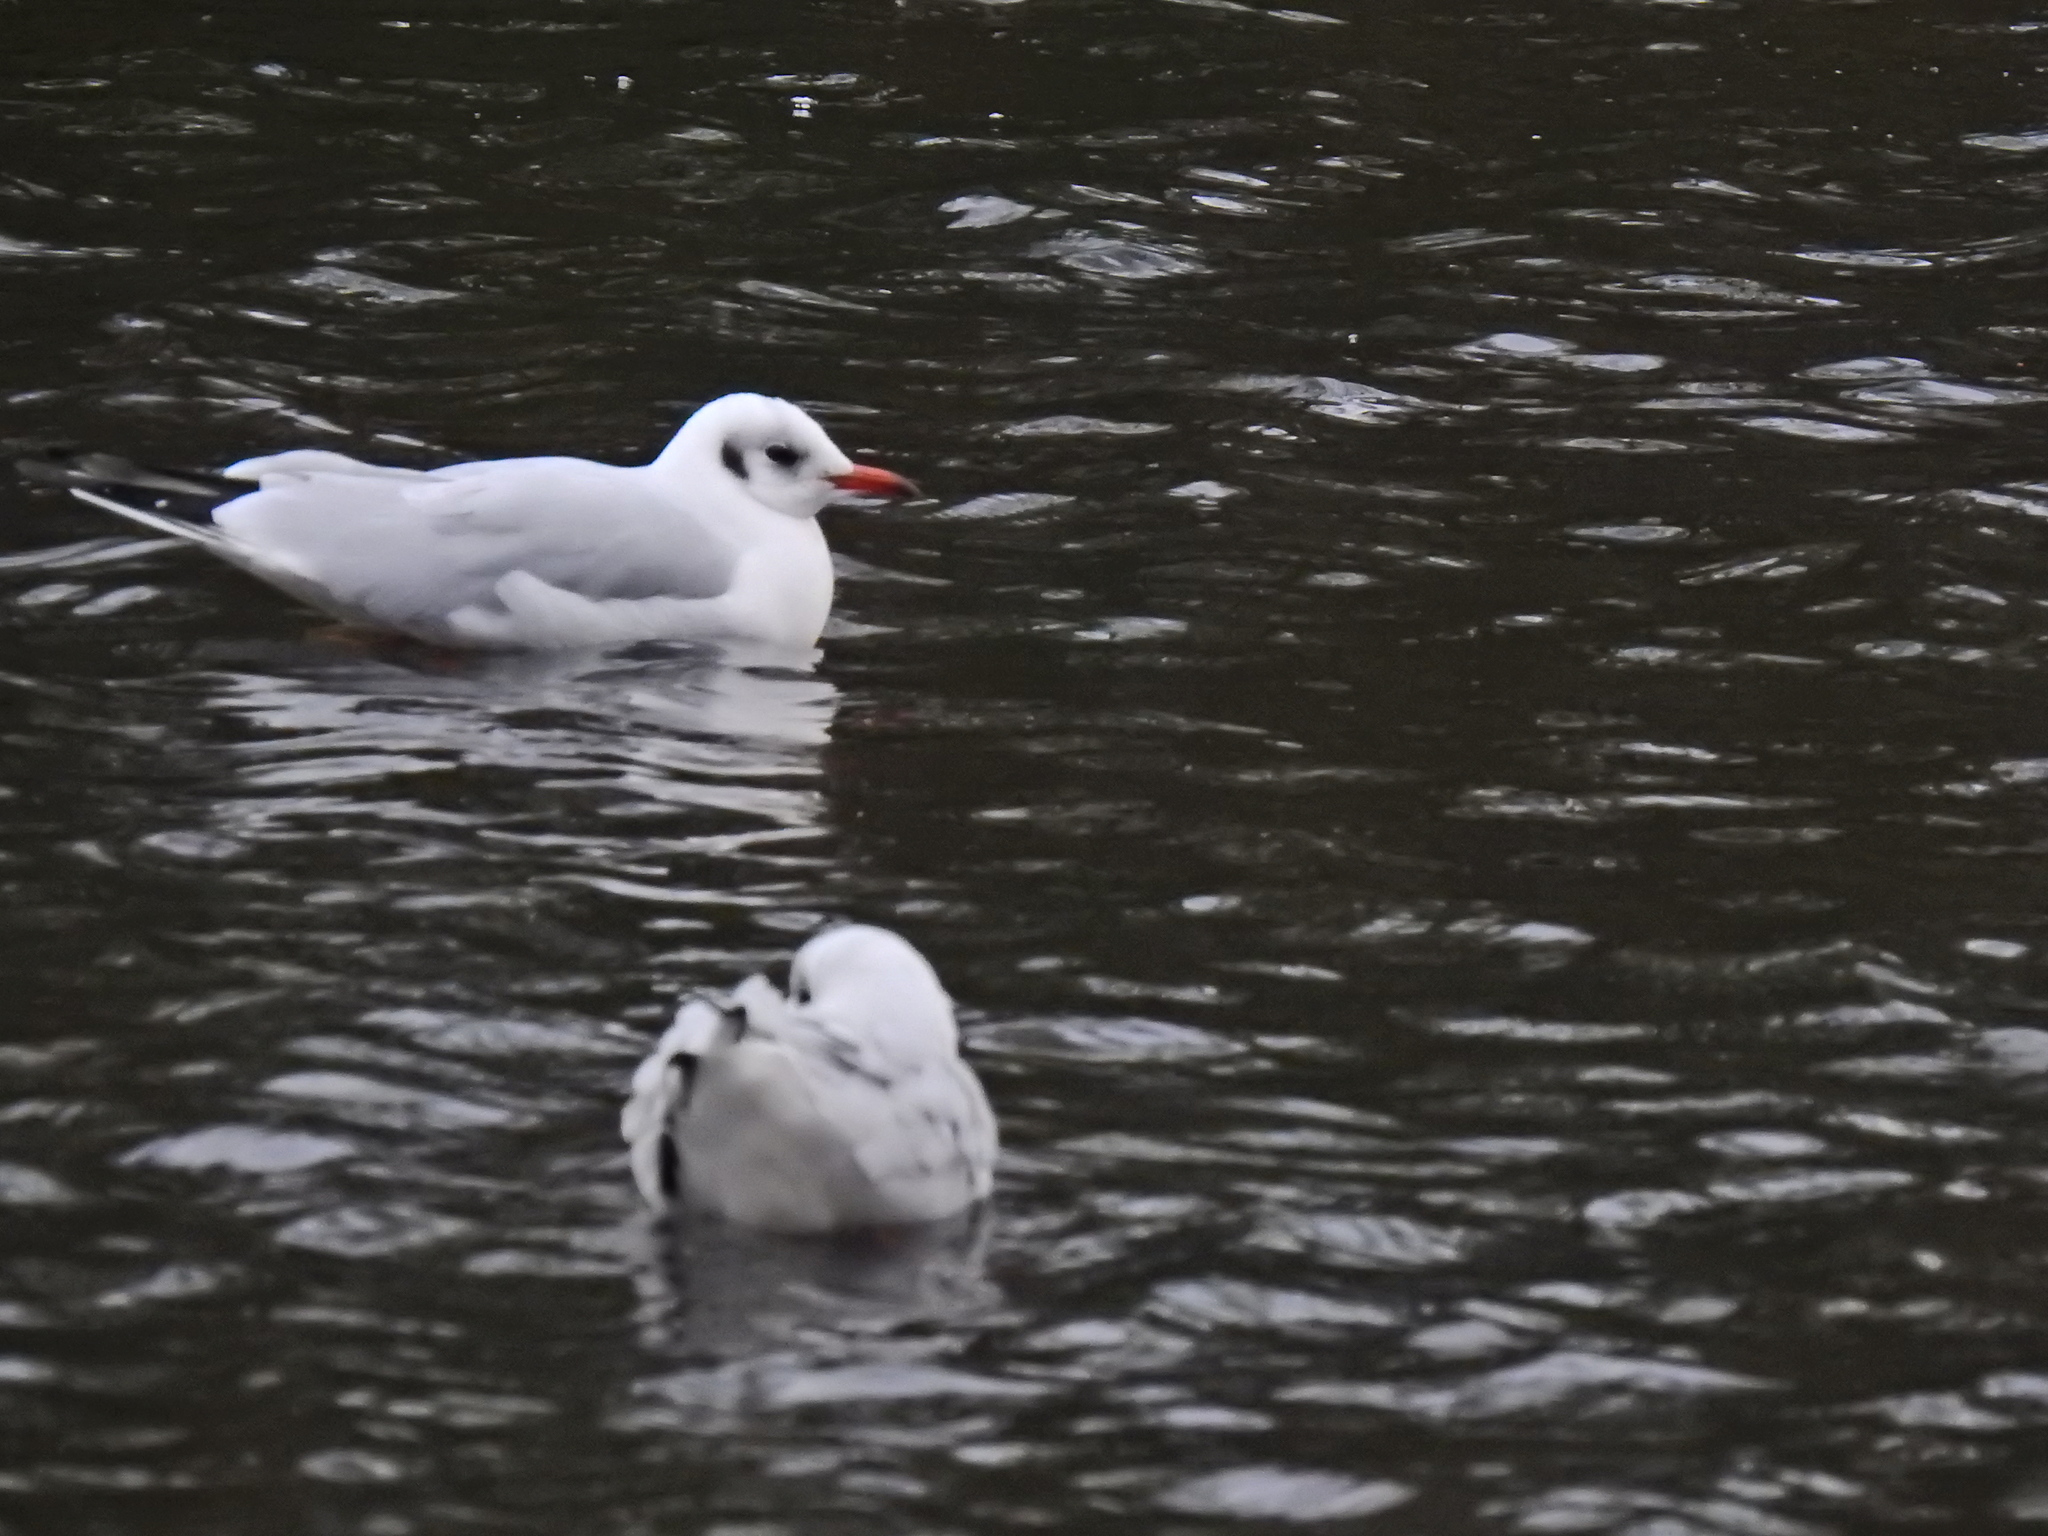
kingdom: Animalia
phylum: Chordata
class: Aves
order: Charadriiformes
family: Laridae
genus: Chroicocephalus
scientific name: Chroicocephalus ridibundus
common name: Black-headed gull
